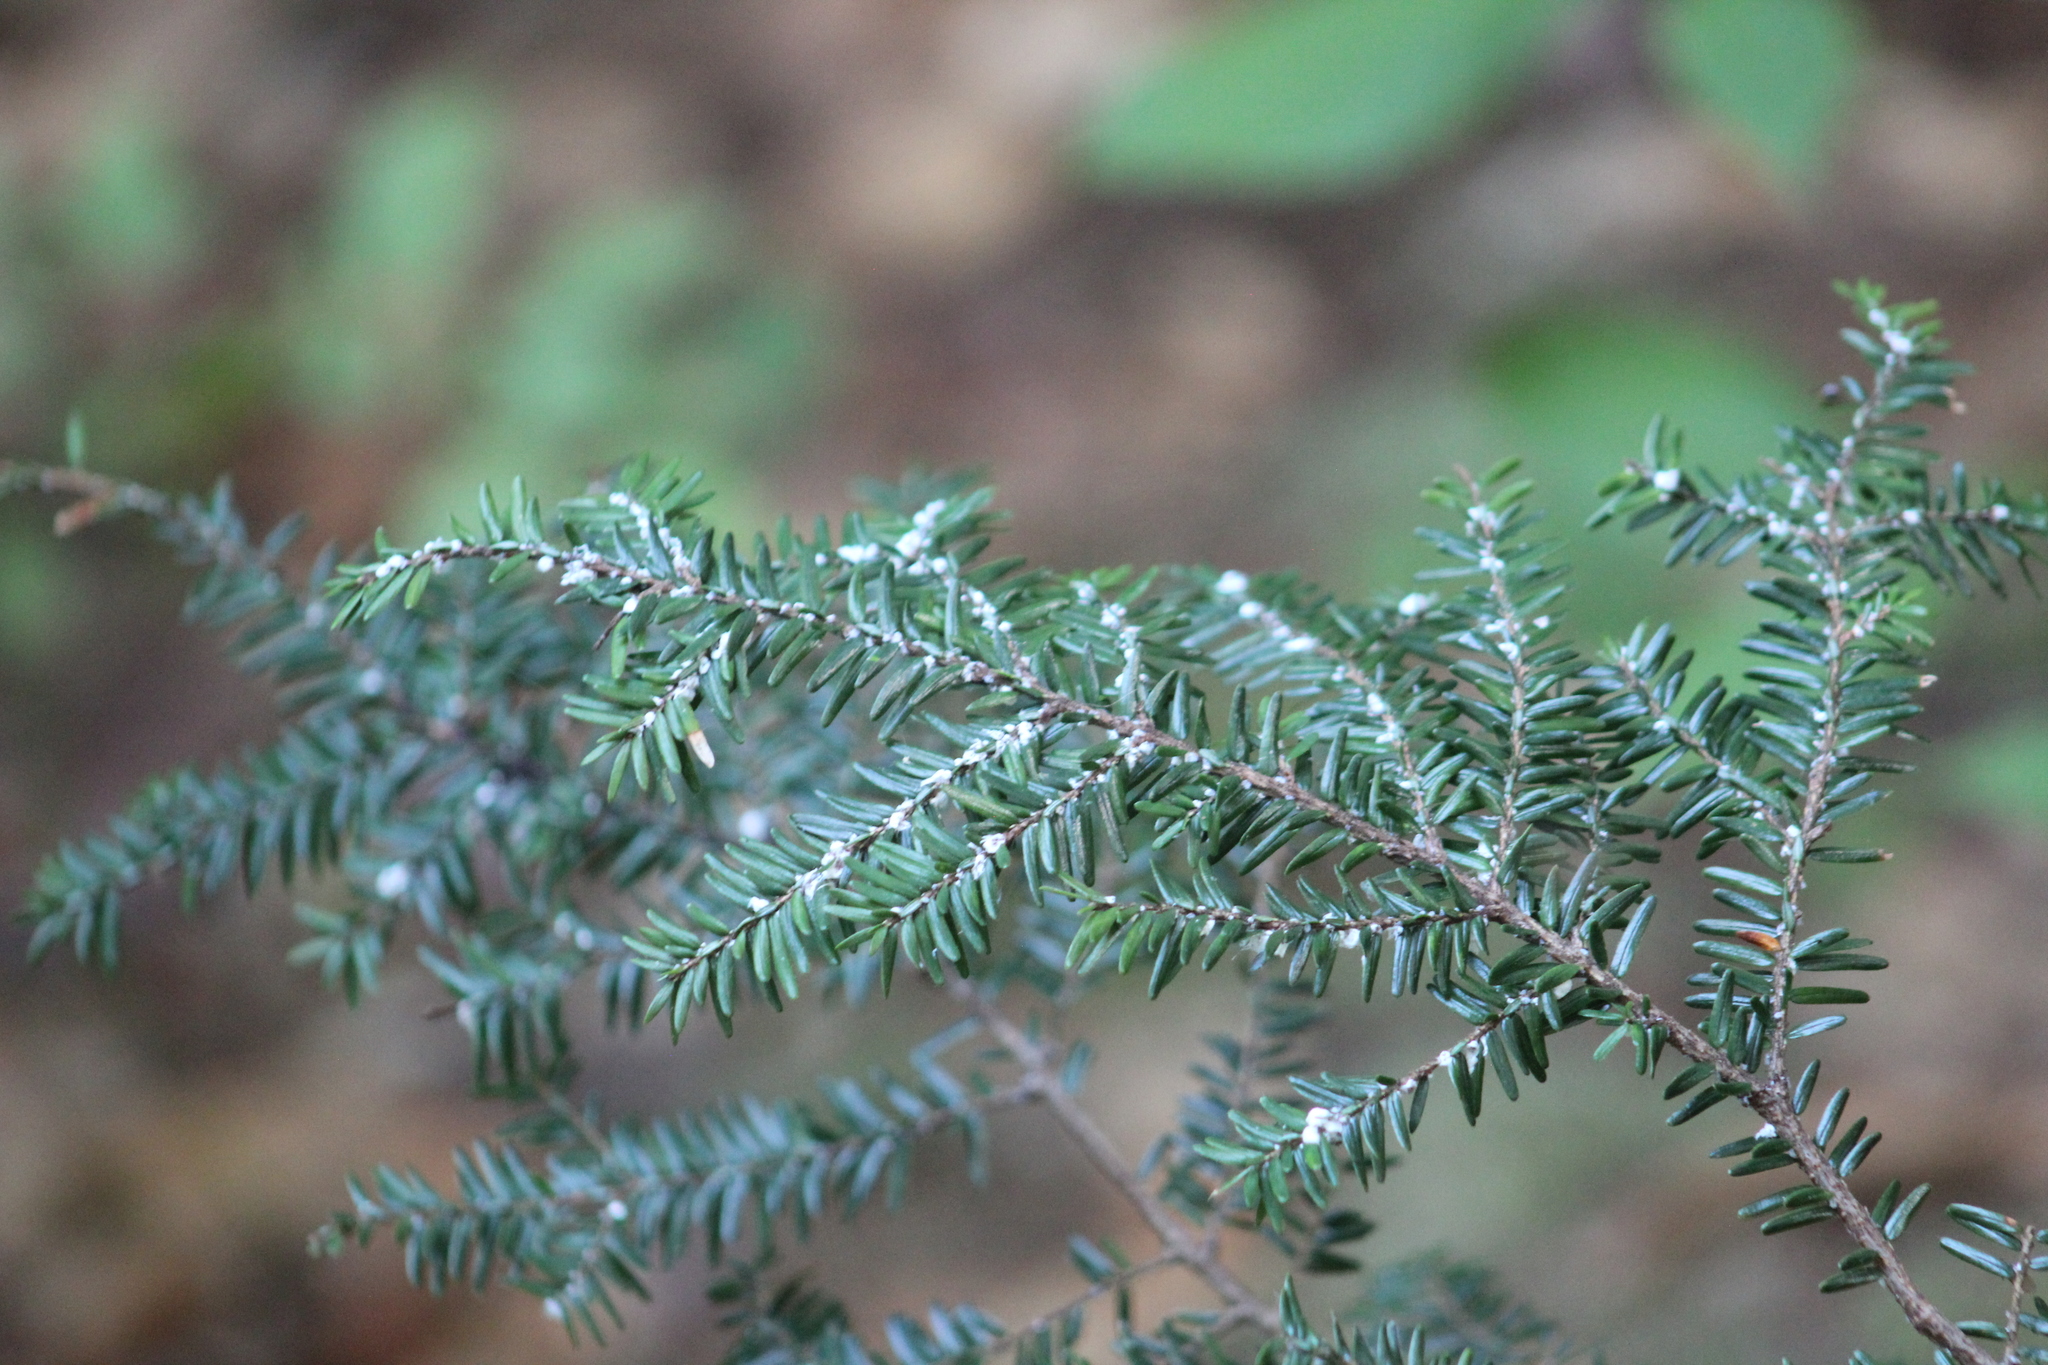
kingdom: Animalia
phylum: Arthropoda
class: Insecta
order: Hemiptera
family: Adelgidae
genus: Adelges
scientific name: Adelges tsugae
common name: Hemlock woolly adelgid
